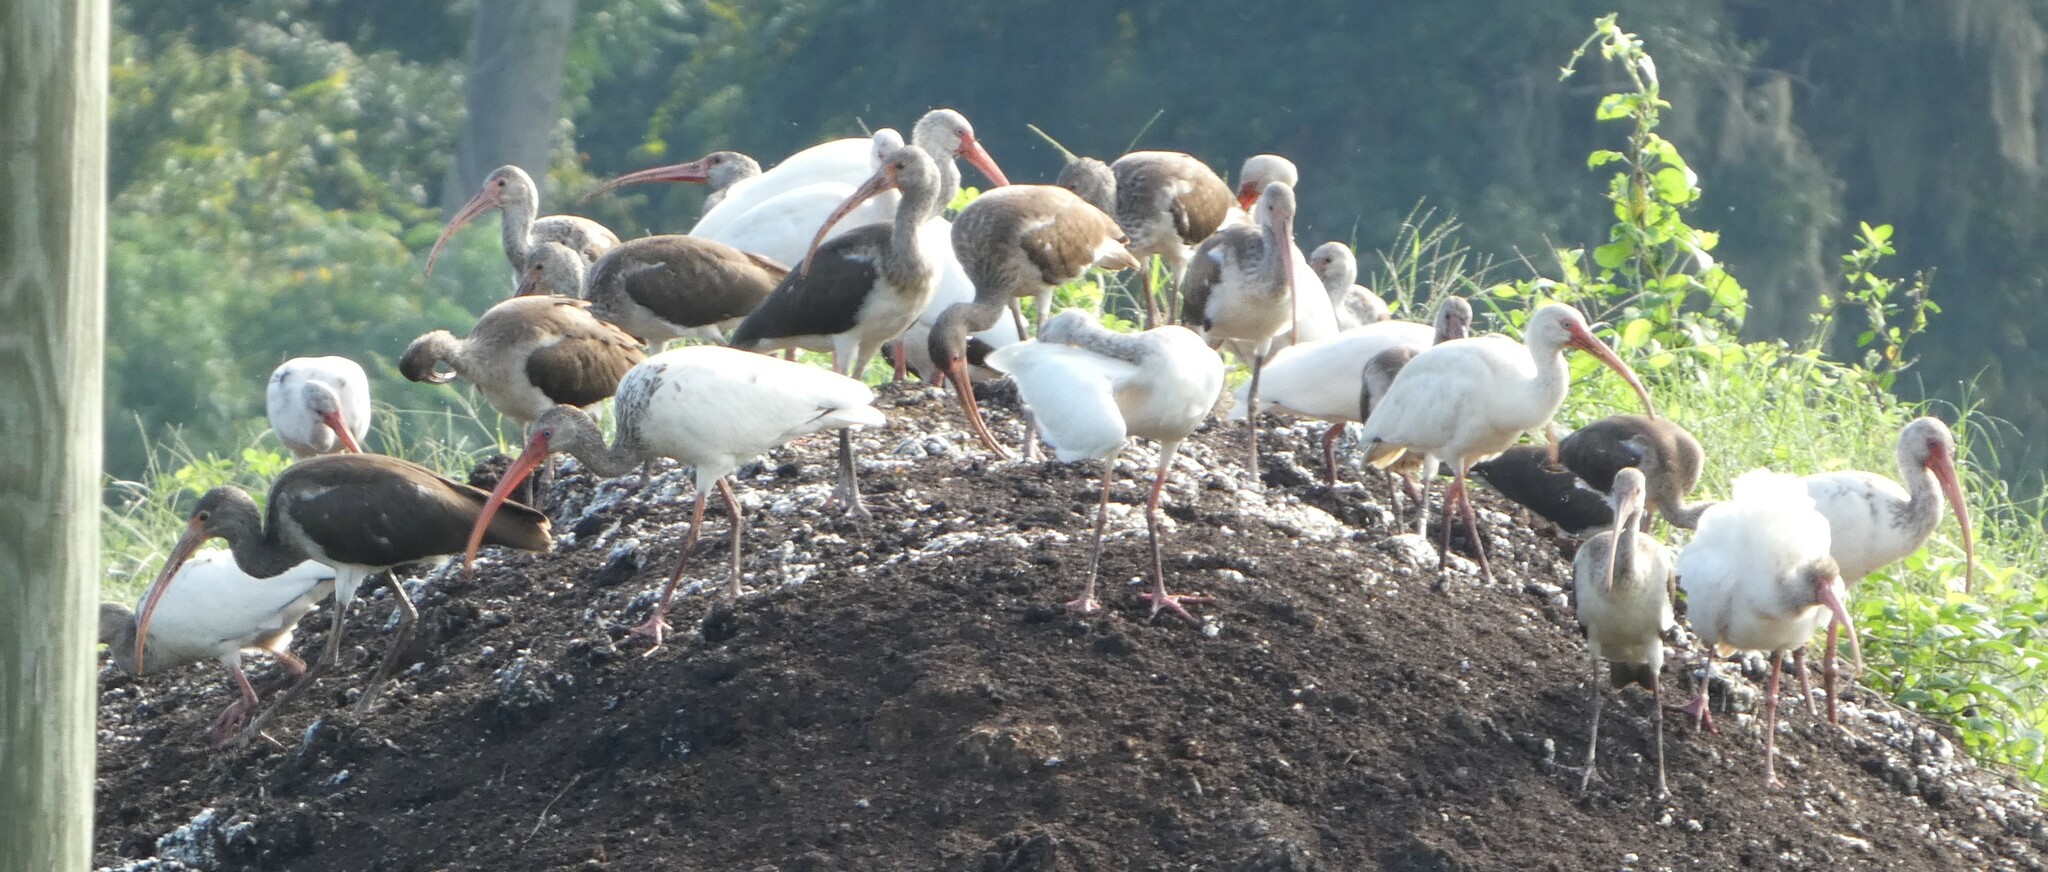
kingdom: Animalia
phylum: Chordata
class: Aves
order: Pelecaniformes
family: Threskiornithidae
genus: Eudocimus
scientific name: Eudocimus albus
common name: White ibis
